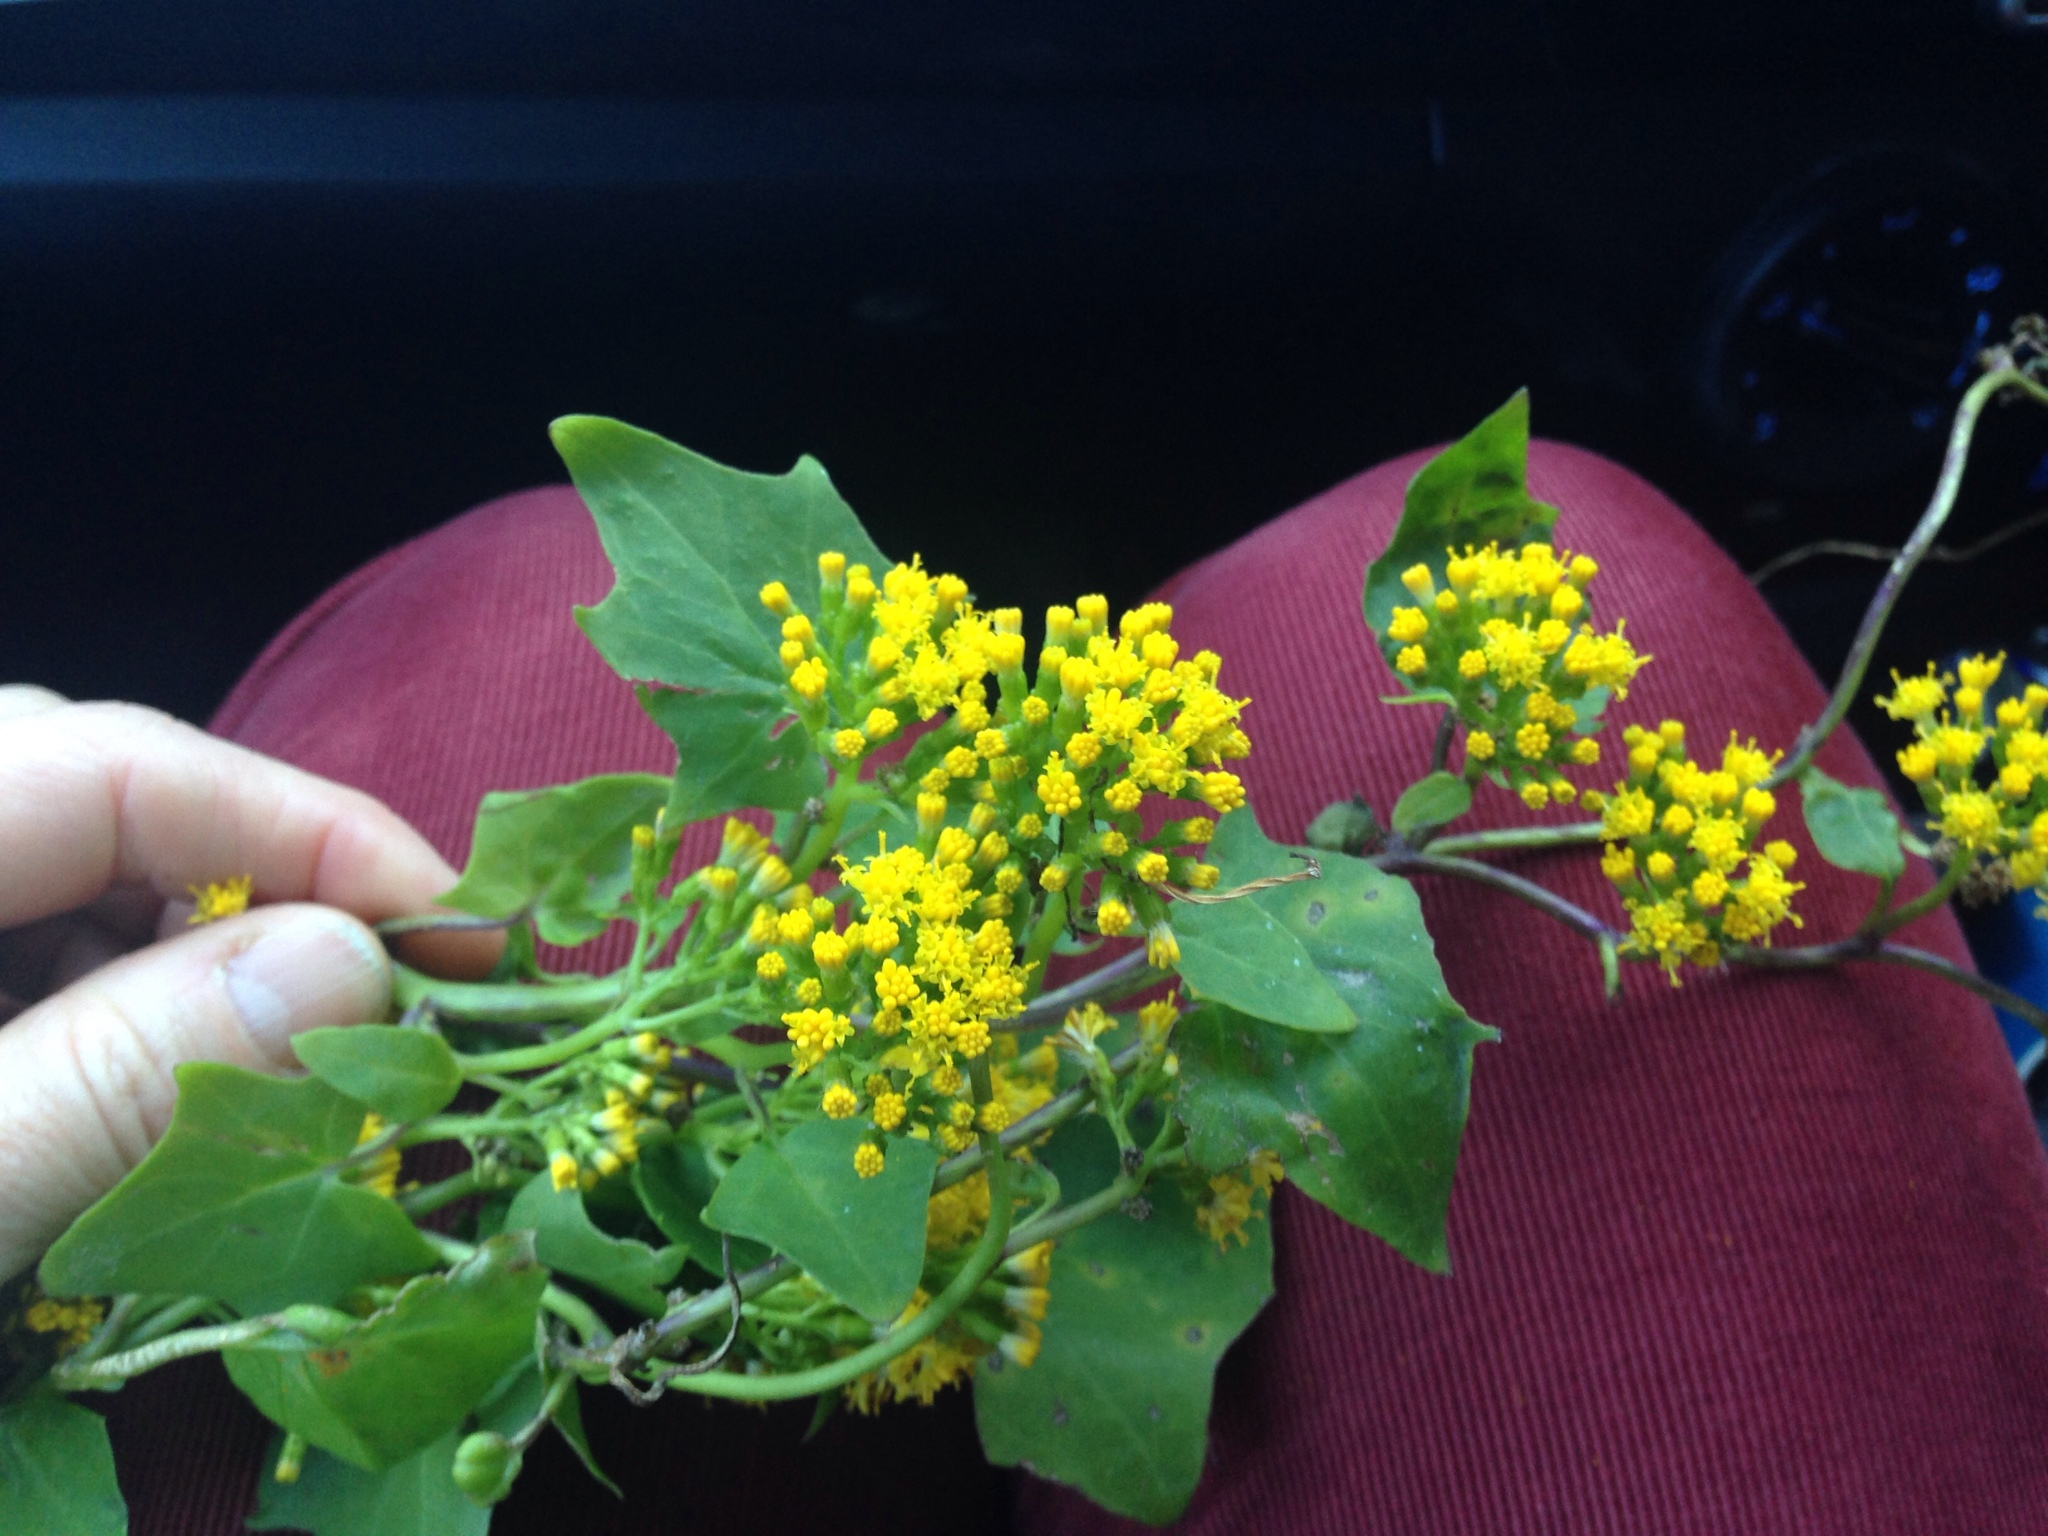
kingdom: Plantae
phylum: Tracheophyta
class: Magnoliopsida
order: Asterales
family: Asteraceae
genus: Delairea
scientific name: Delairea odorata
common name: Cape-ivy
